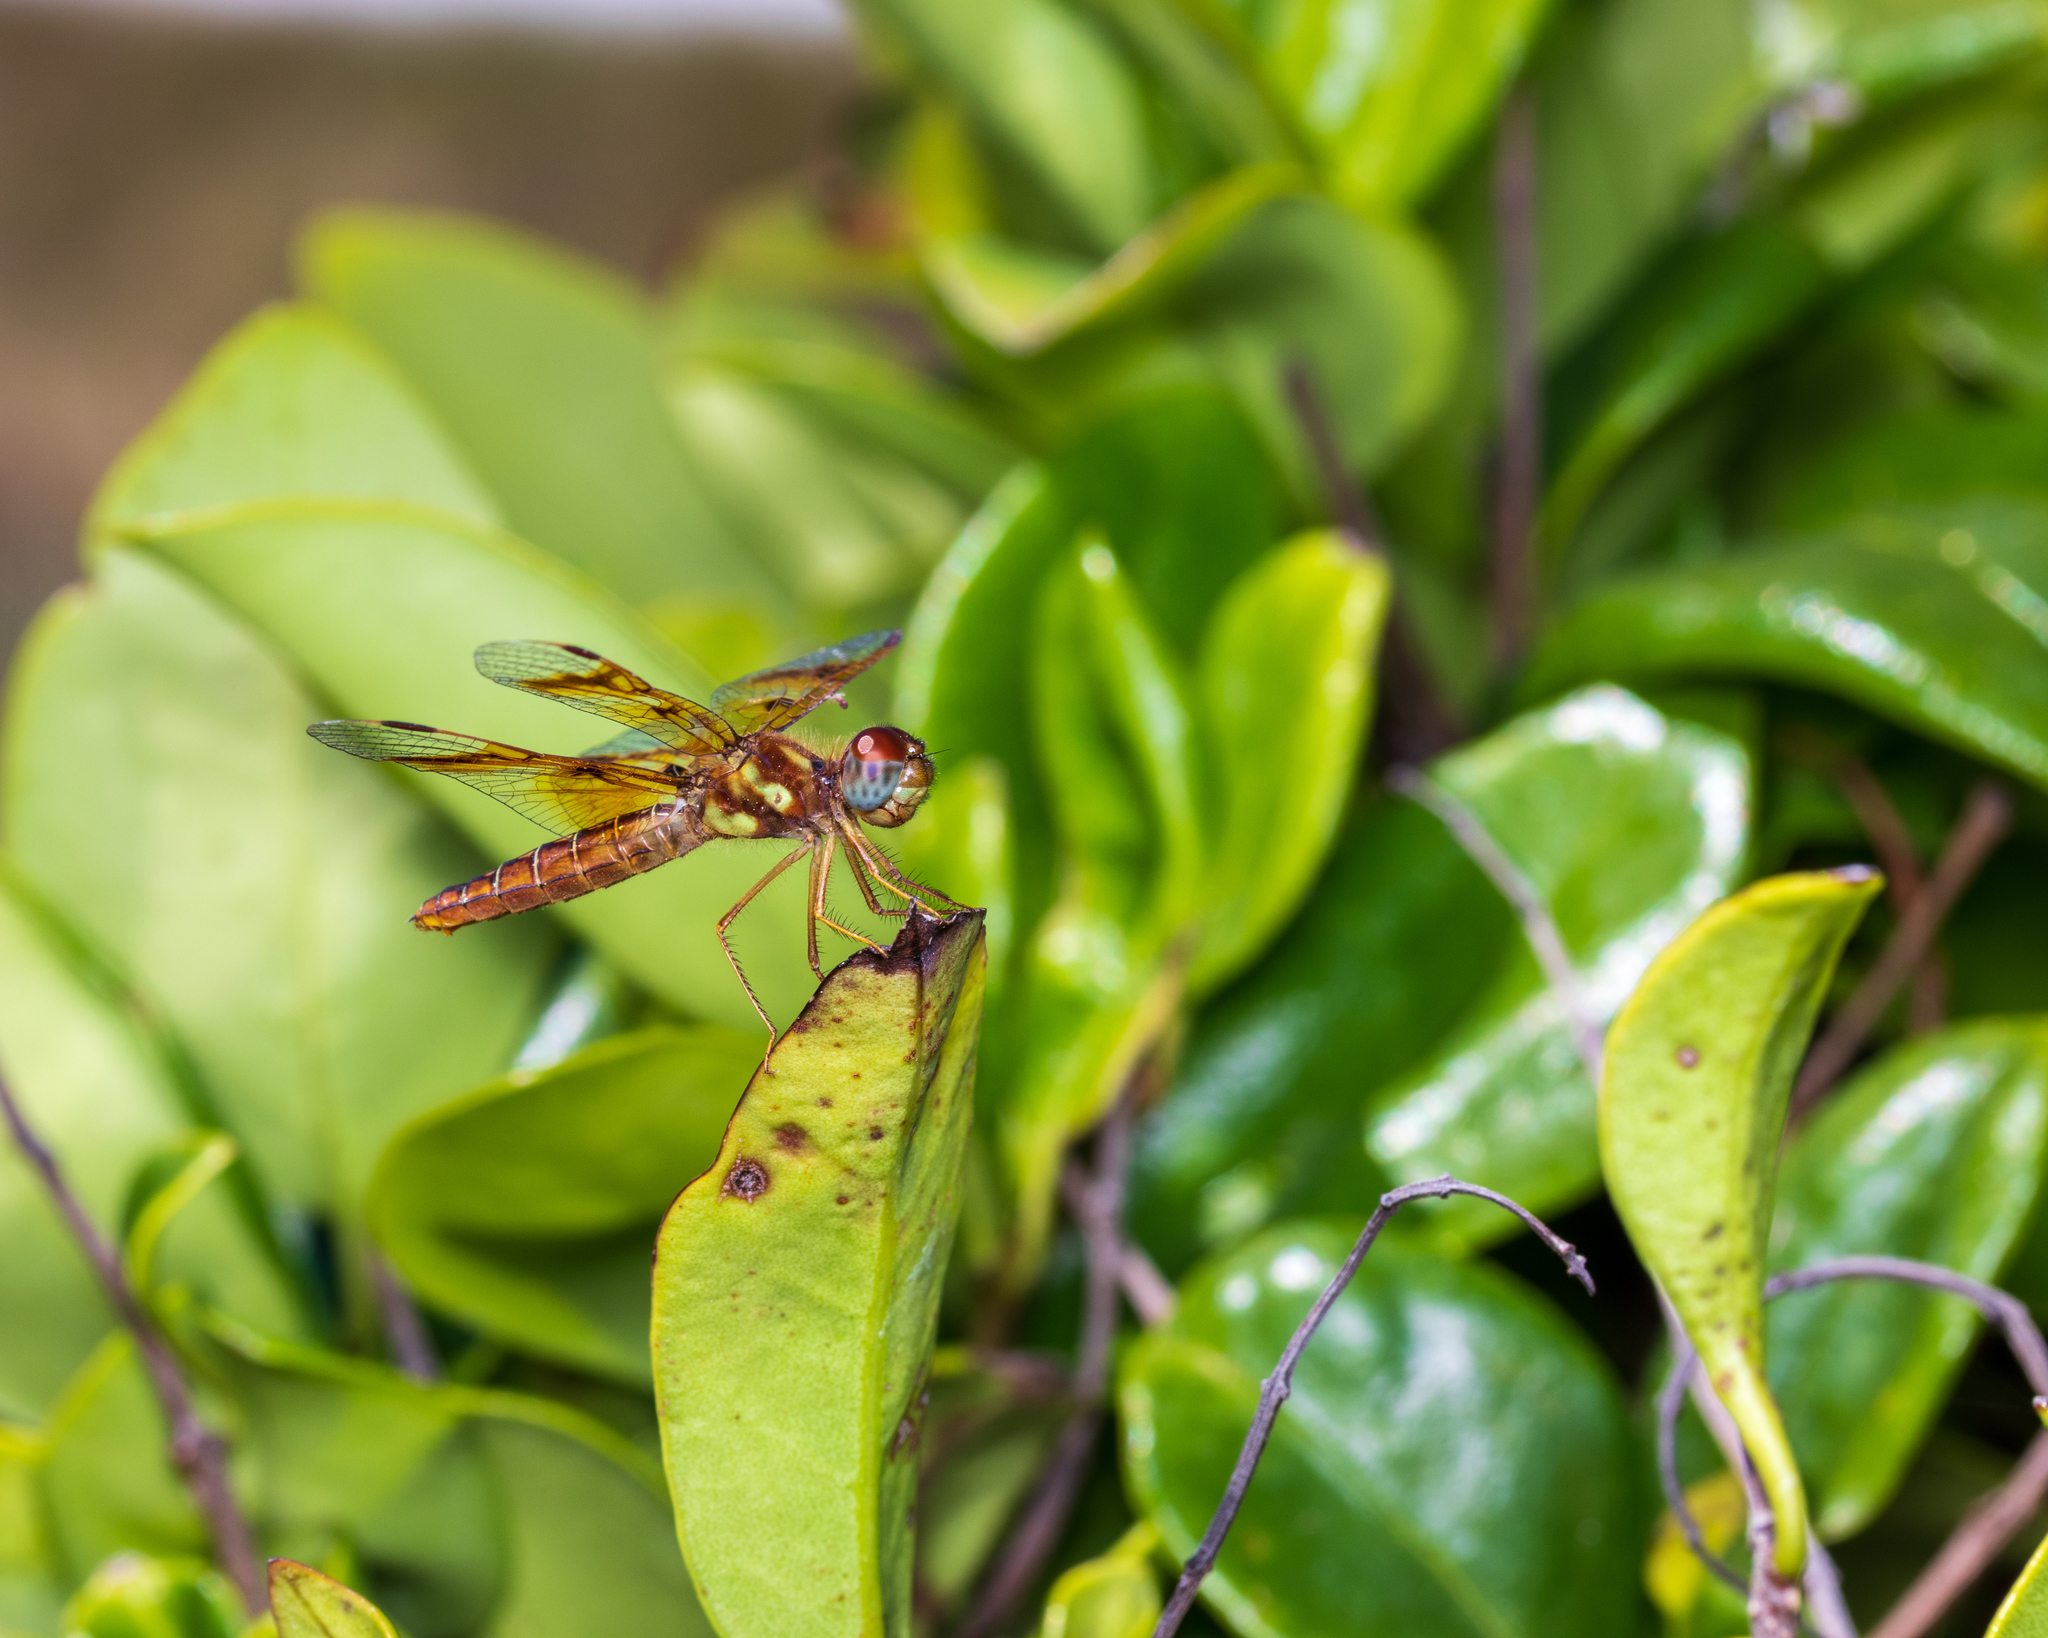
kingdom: Animalia
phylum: Arthropoda
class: Insecta
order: Odonata
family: Libellulidae
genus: Perithemis
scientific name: Perithemis tenera
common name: Eastern amberwing
